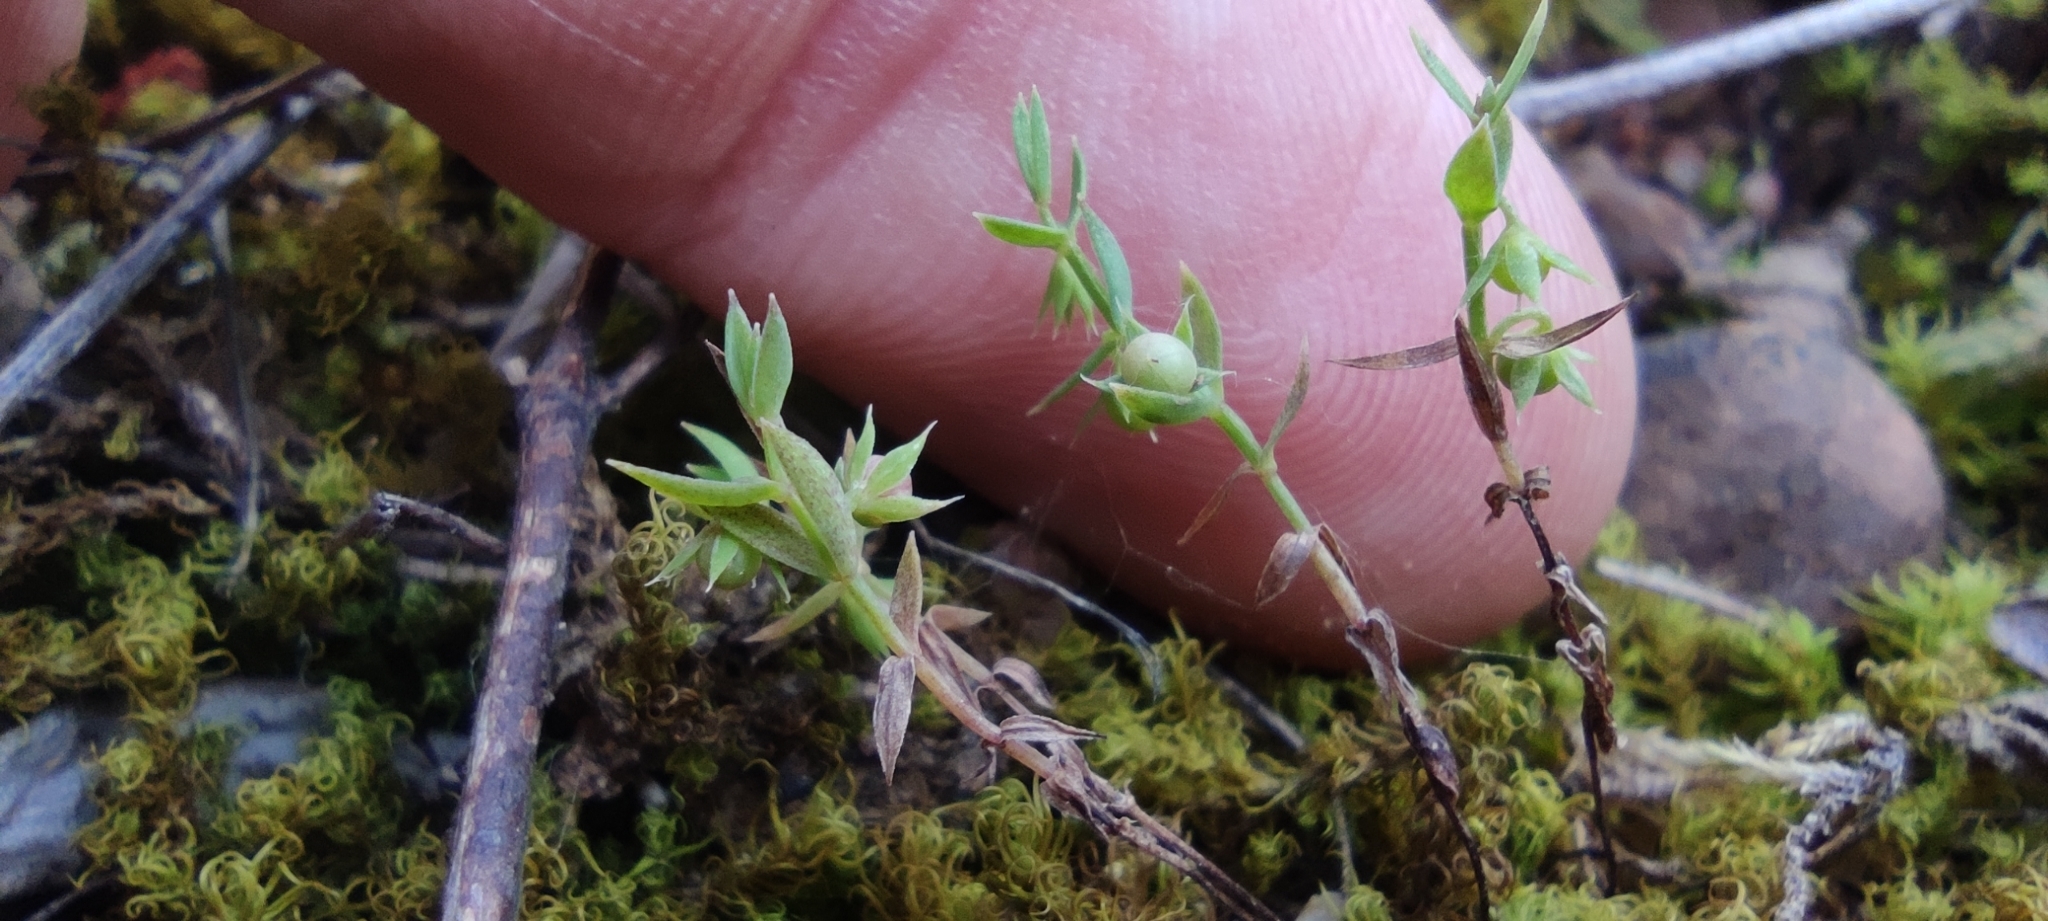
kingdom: Plantae
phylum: Tracheophyta
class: Magnoliopsida
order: Ericales
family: Primulaceae
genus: Lysimachia
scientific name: Lysimachia linum-stellatum
